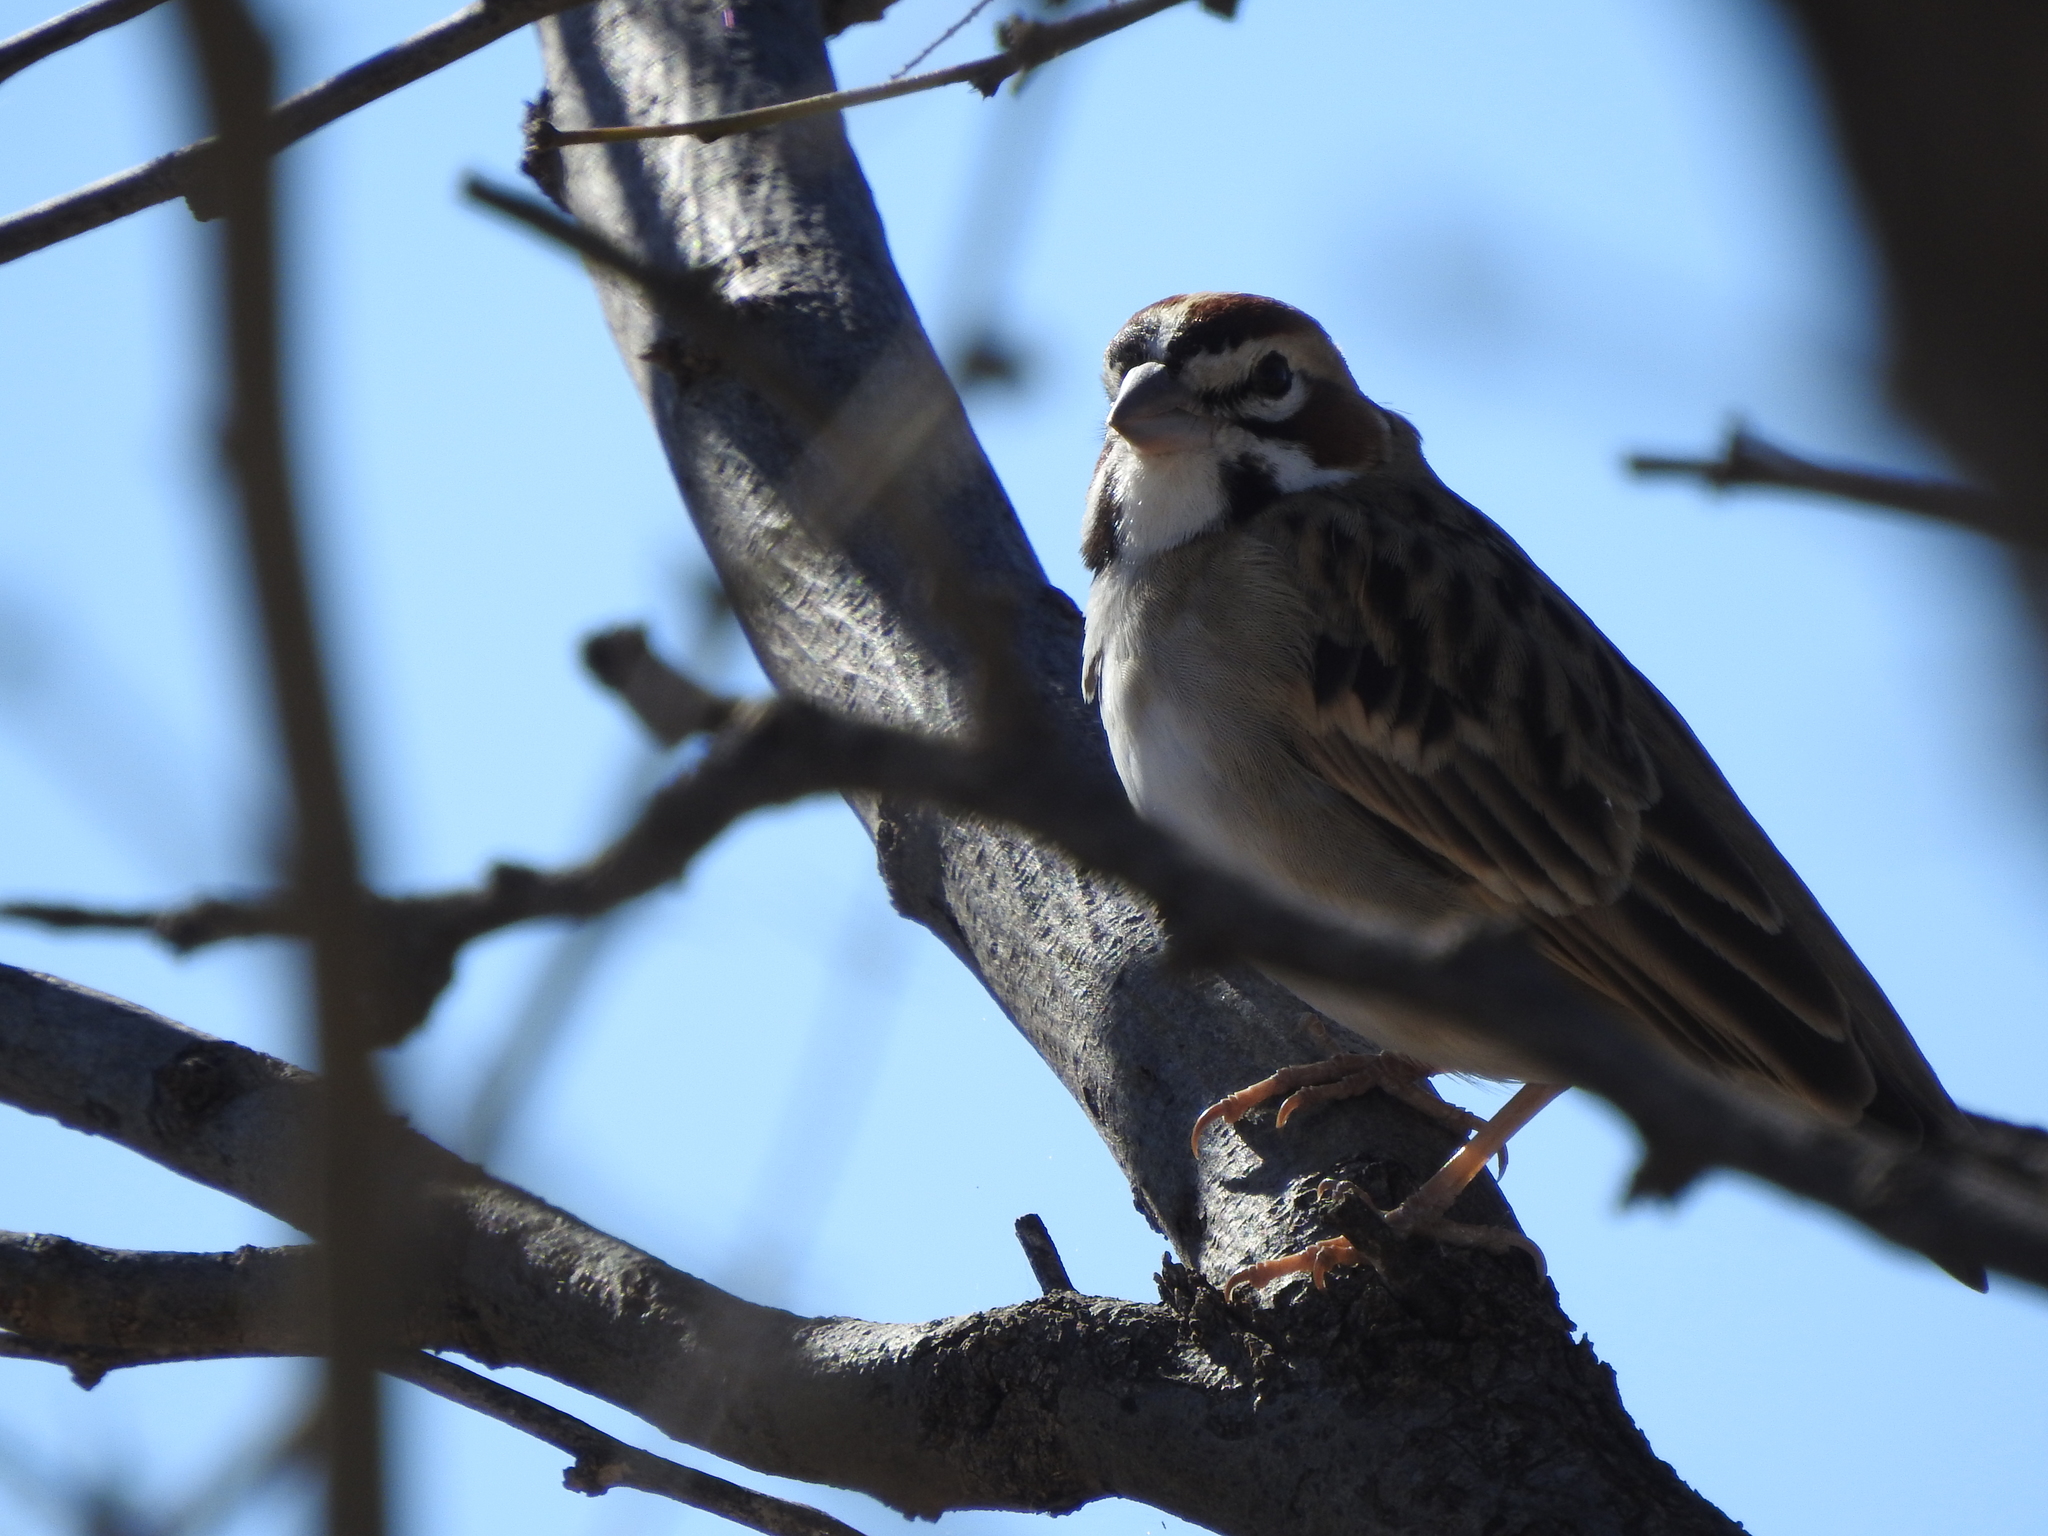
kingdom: Animalia
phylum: Chordata
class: Aves
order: Passeriformes
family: Passerellidae
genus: Chondestes
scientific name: Chondestes grammacus
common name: Lark sparrow
